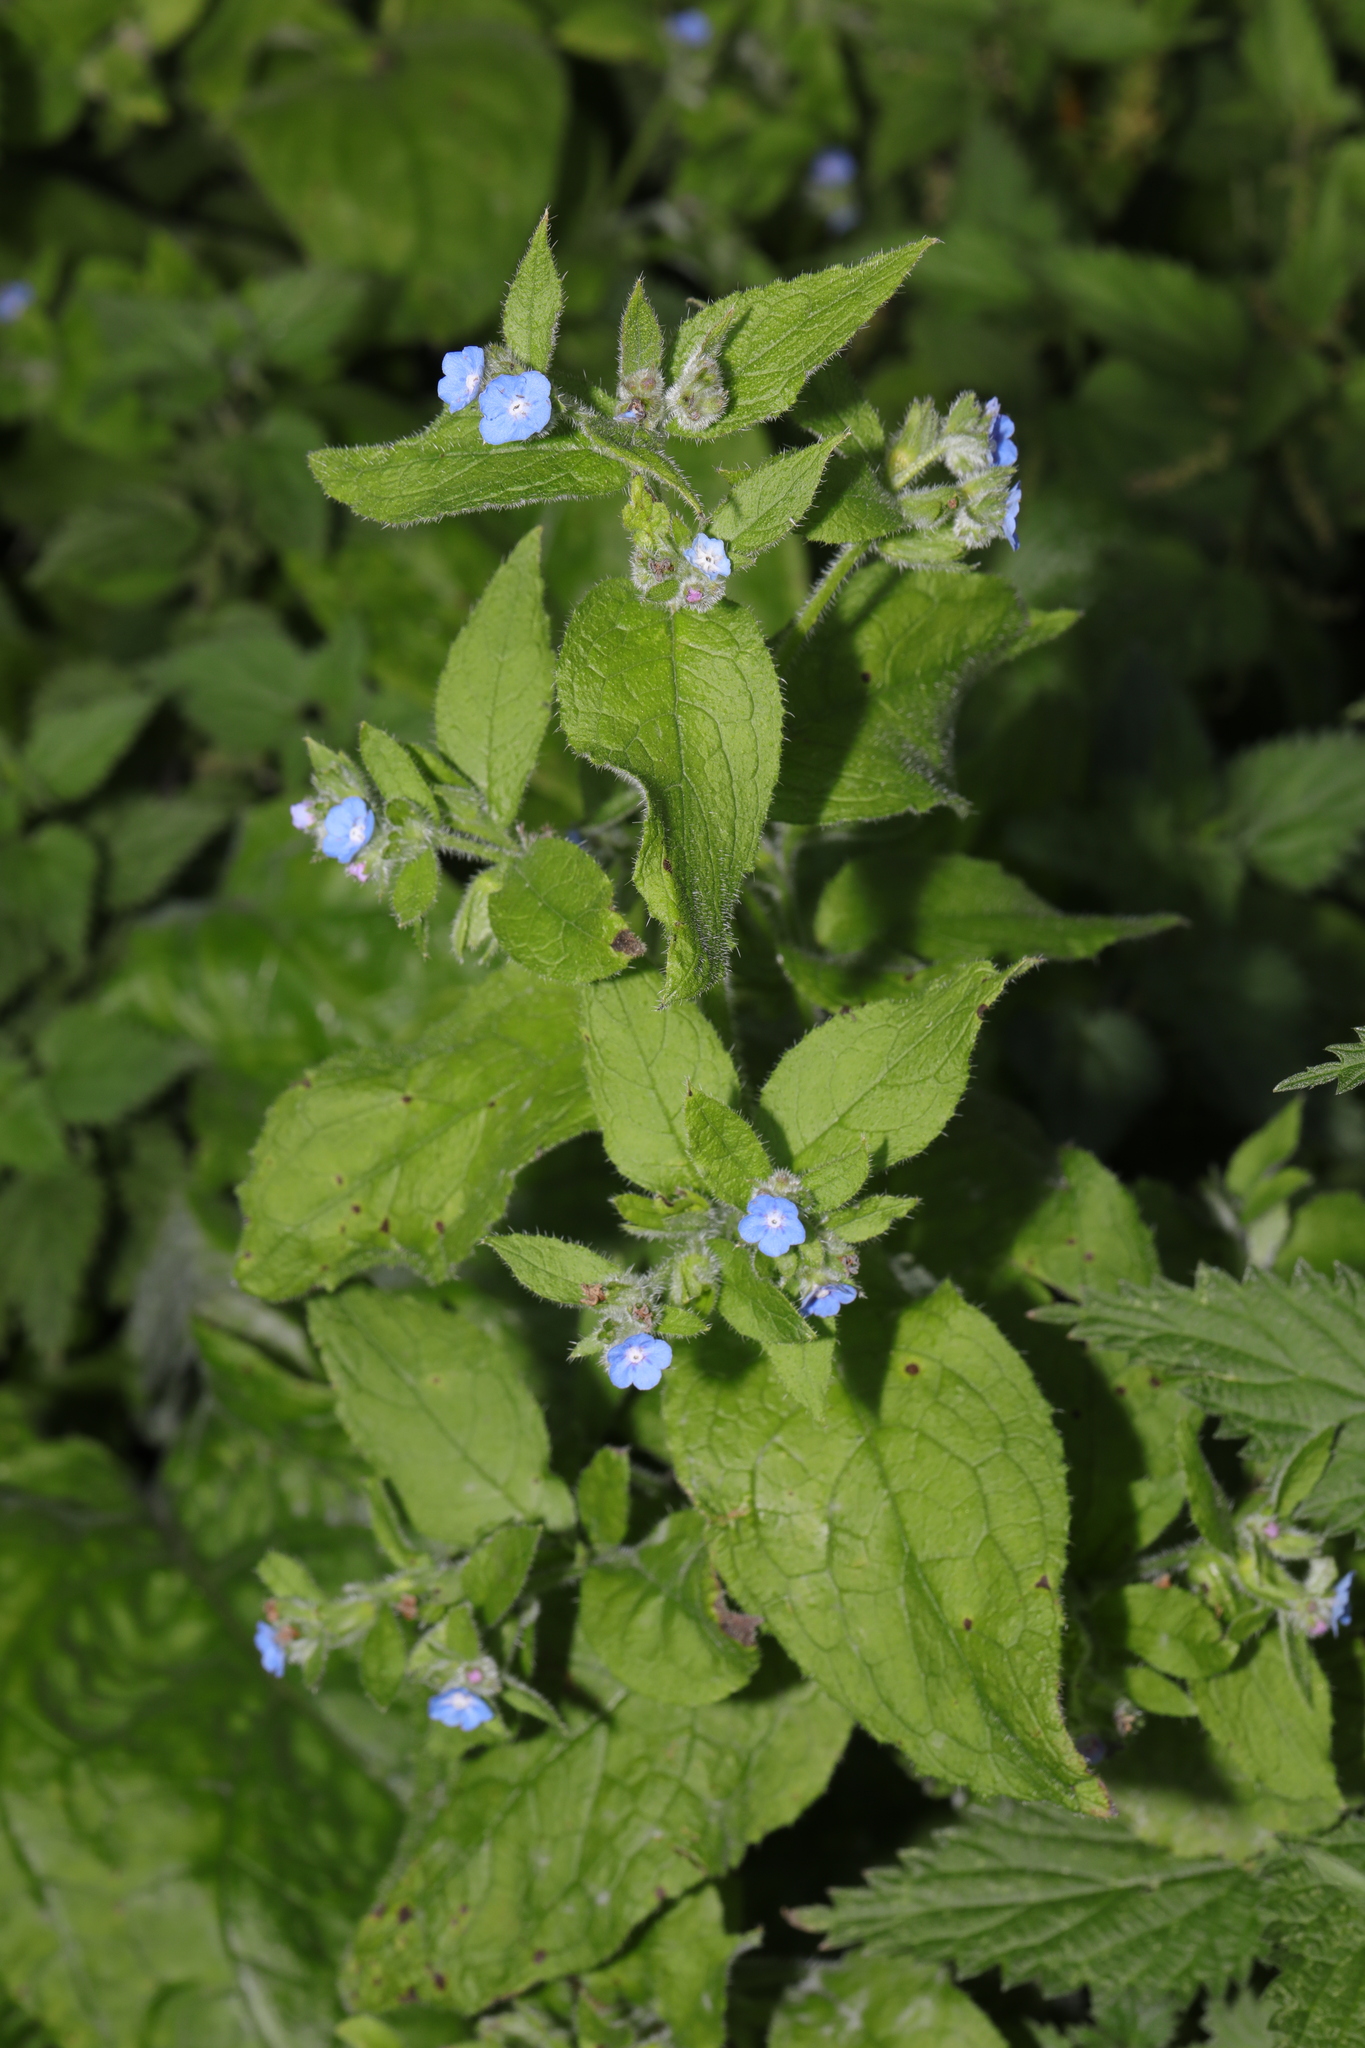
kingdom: Plantae
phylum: Tracheophyta
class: Magnoliopsida
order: Boraginales
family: Boraginaceae
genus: Pentaglottis
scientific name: Pentaglottis sempervirens
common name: Green alkanet
